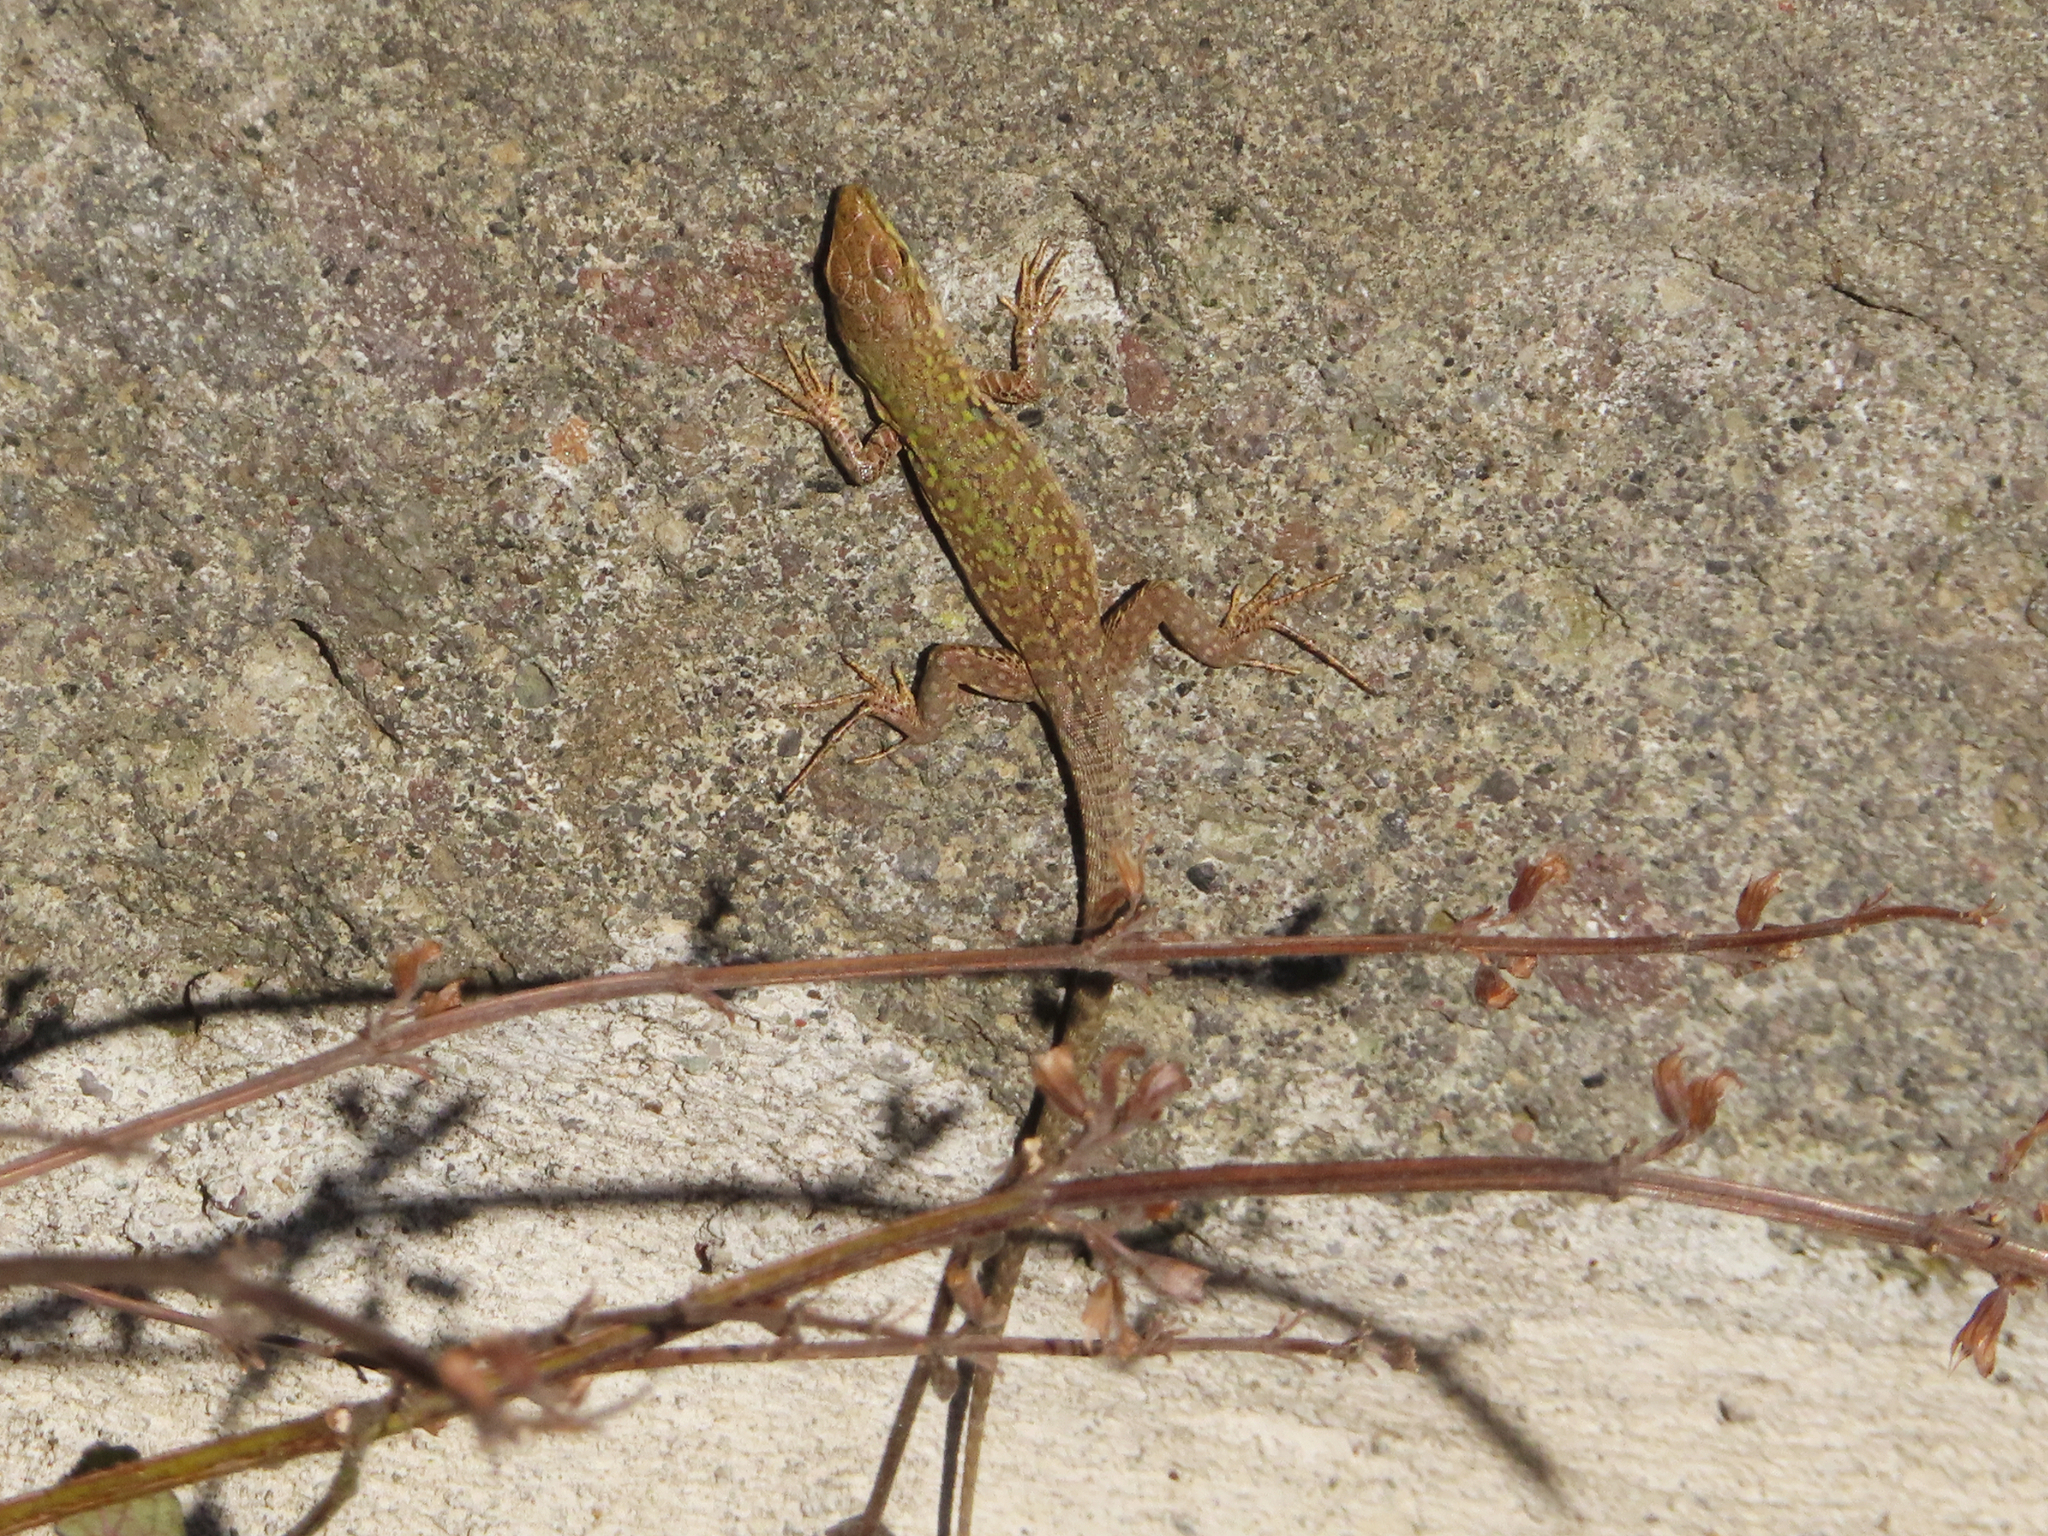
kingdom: Animalia
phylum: Chordata
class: Squamata
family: Lacertidae
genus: Podarcis
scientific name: Podarcis siculus
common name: Italian wall lizard
